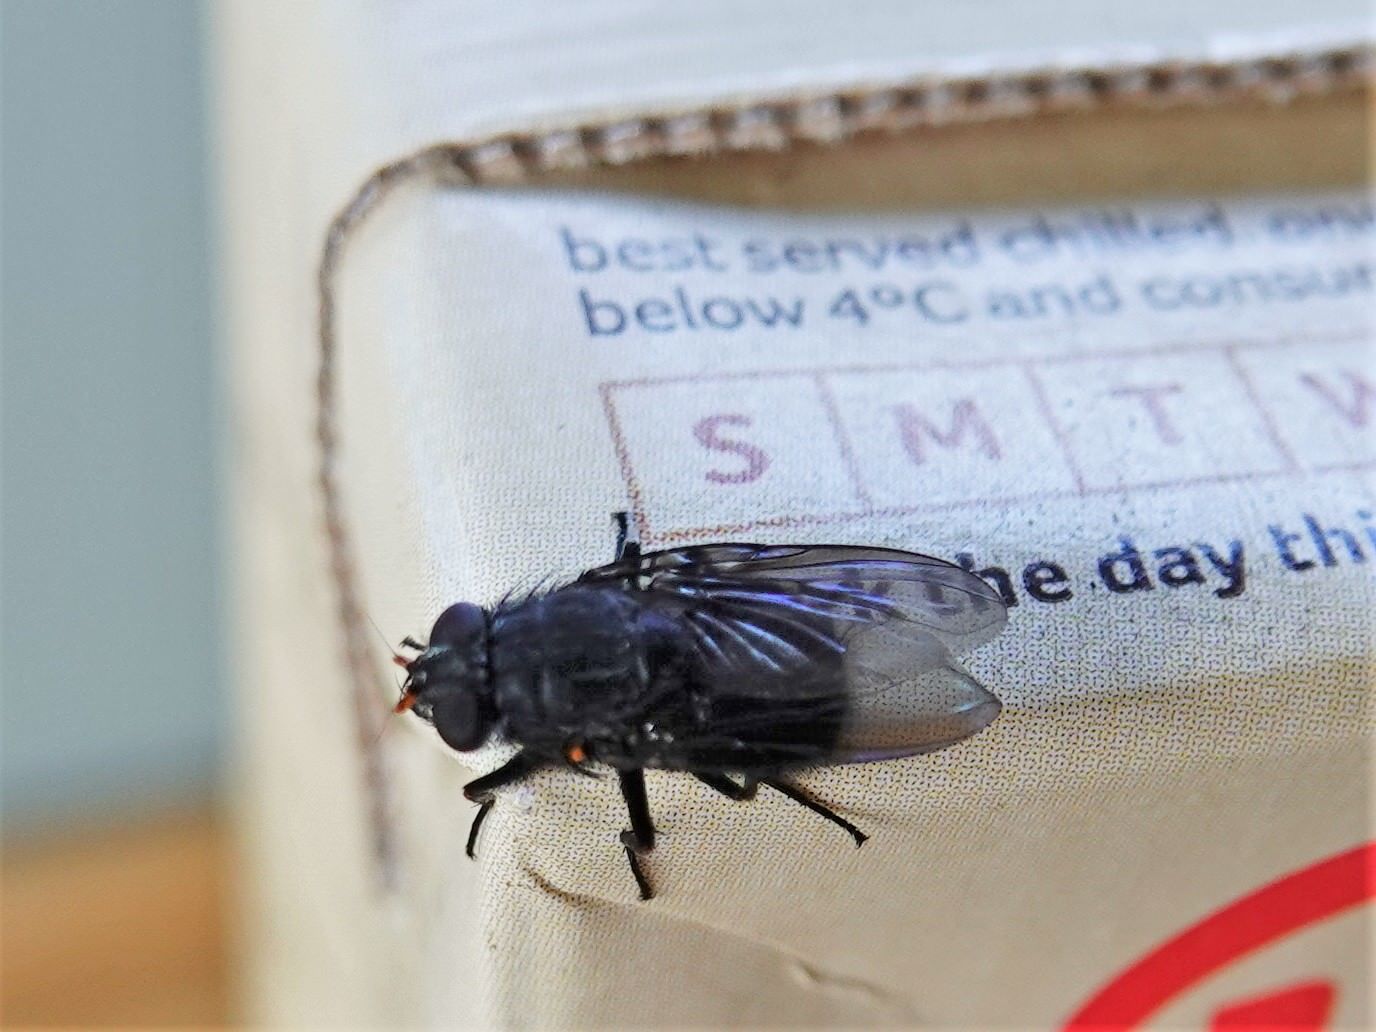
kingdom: Animalia
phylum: Arthropoda
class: Insecta
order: Diptera
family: Muscidae
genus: Calliphoroides
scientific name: Calliphoroides antennatis
